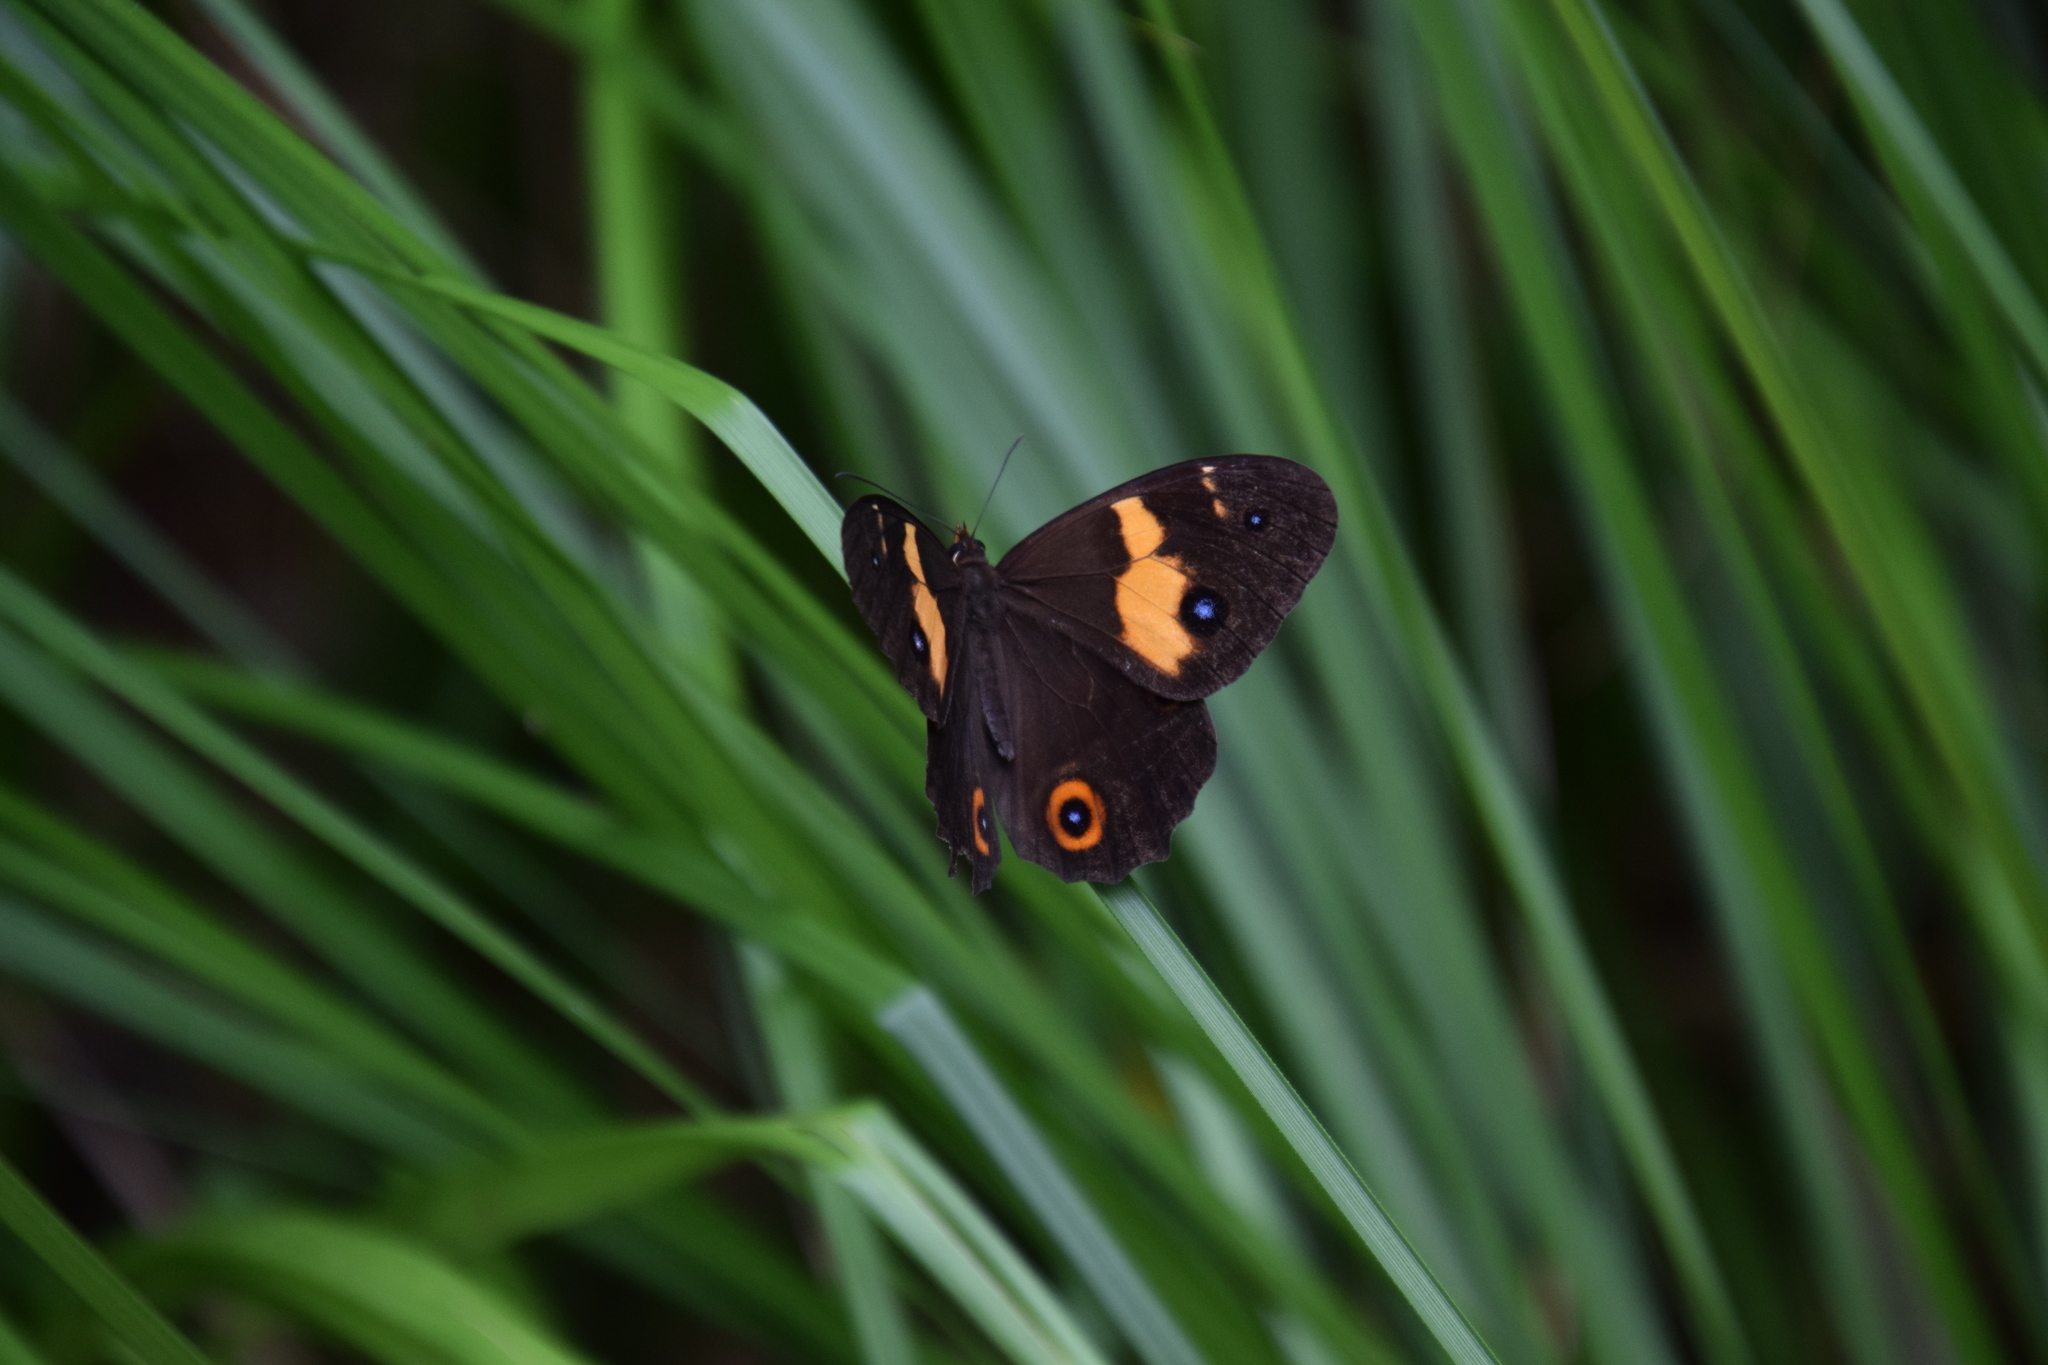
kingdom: Animalia
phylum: Arthropoda
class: Insecta
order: Lepidoptera
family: Nymphalidae
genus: Tisiphone
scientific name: Tisiphone abeona
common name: Swordgrass brown
